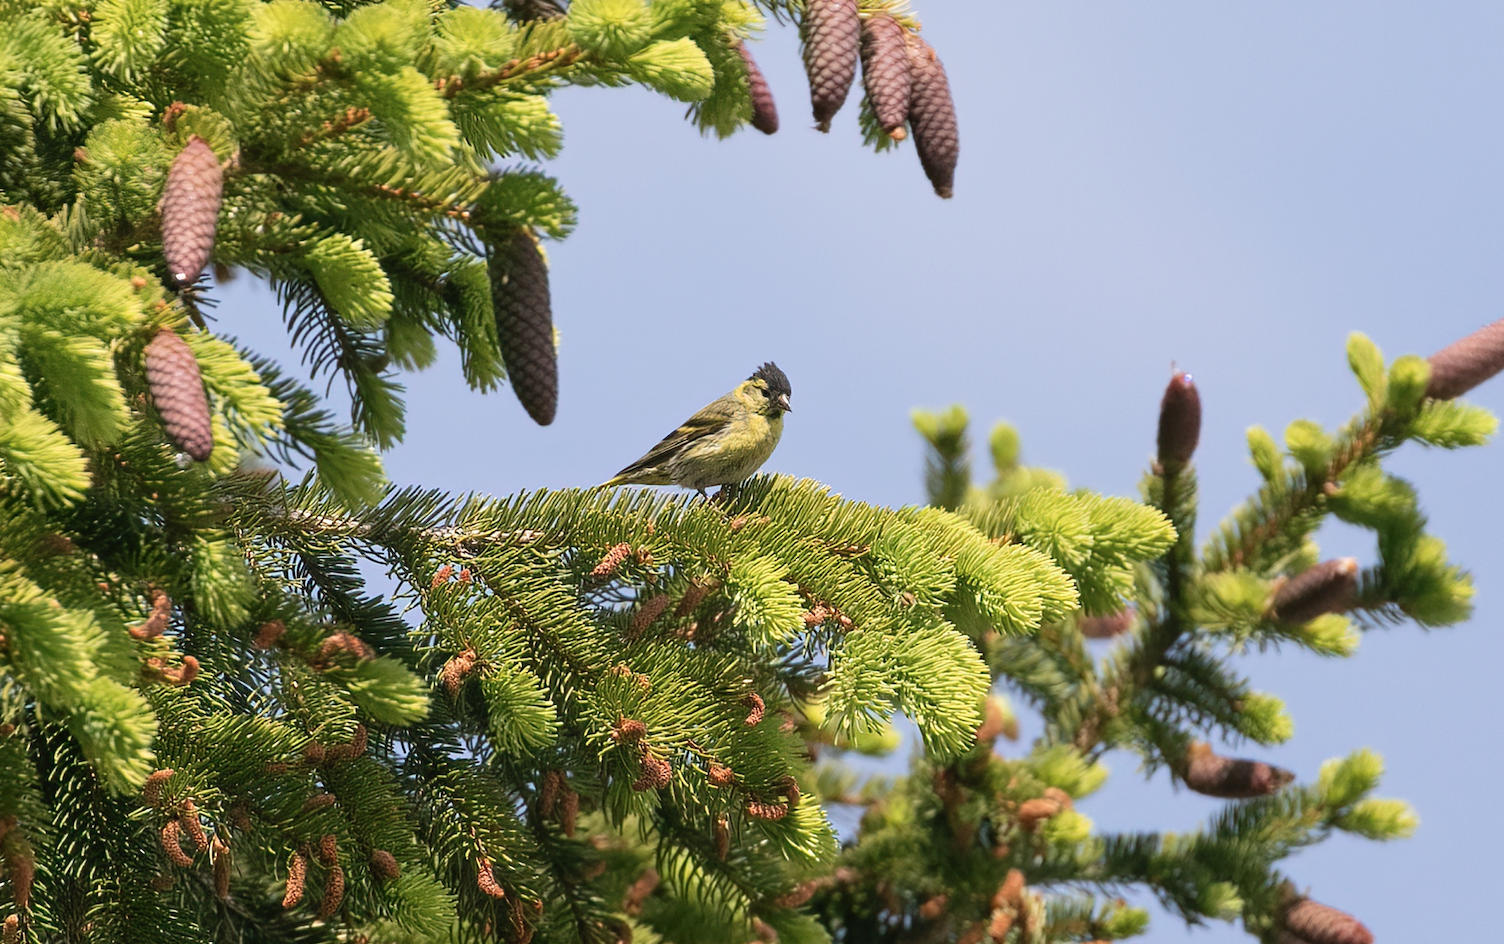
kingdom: Animalia
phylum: Chordata
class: Aves
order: Passeriformes
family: Fringillidae
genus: Spinus
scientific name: Spinus spinus
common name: Eurasian siskin
